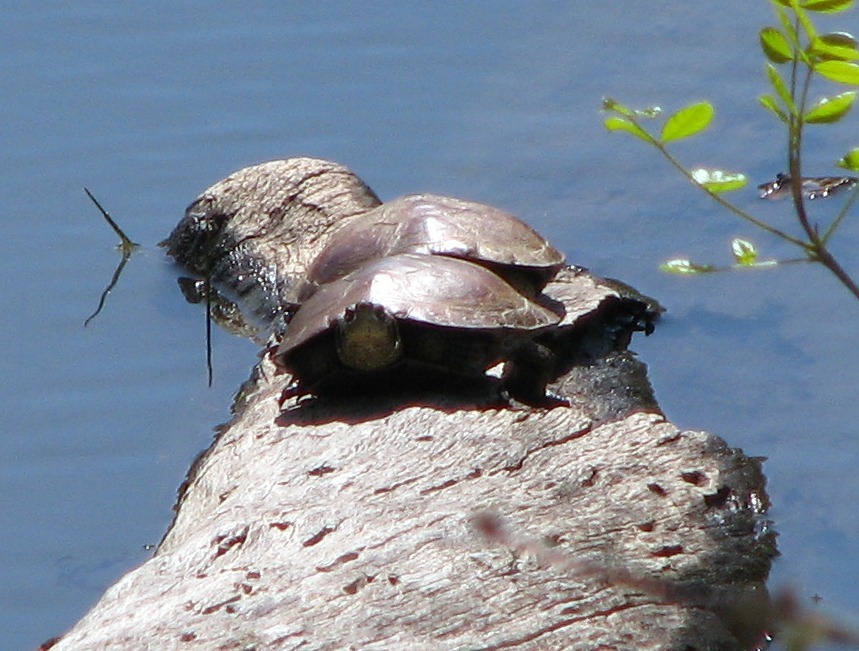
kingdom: Animalia
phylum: Chordata
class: Testudines
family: Emydidae
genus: Actinemys
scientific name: Actinemys marmorata
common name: Western pond turtle
